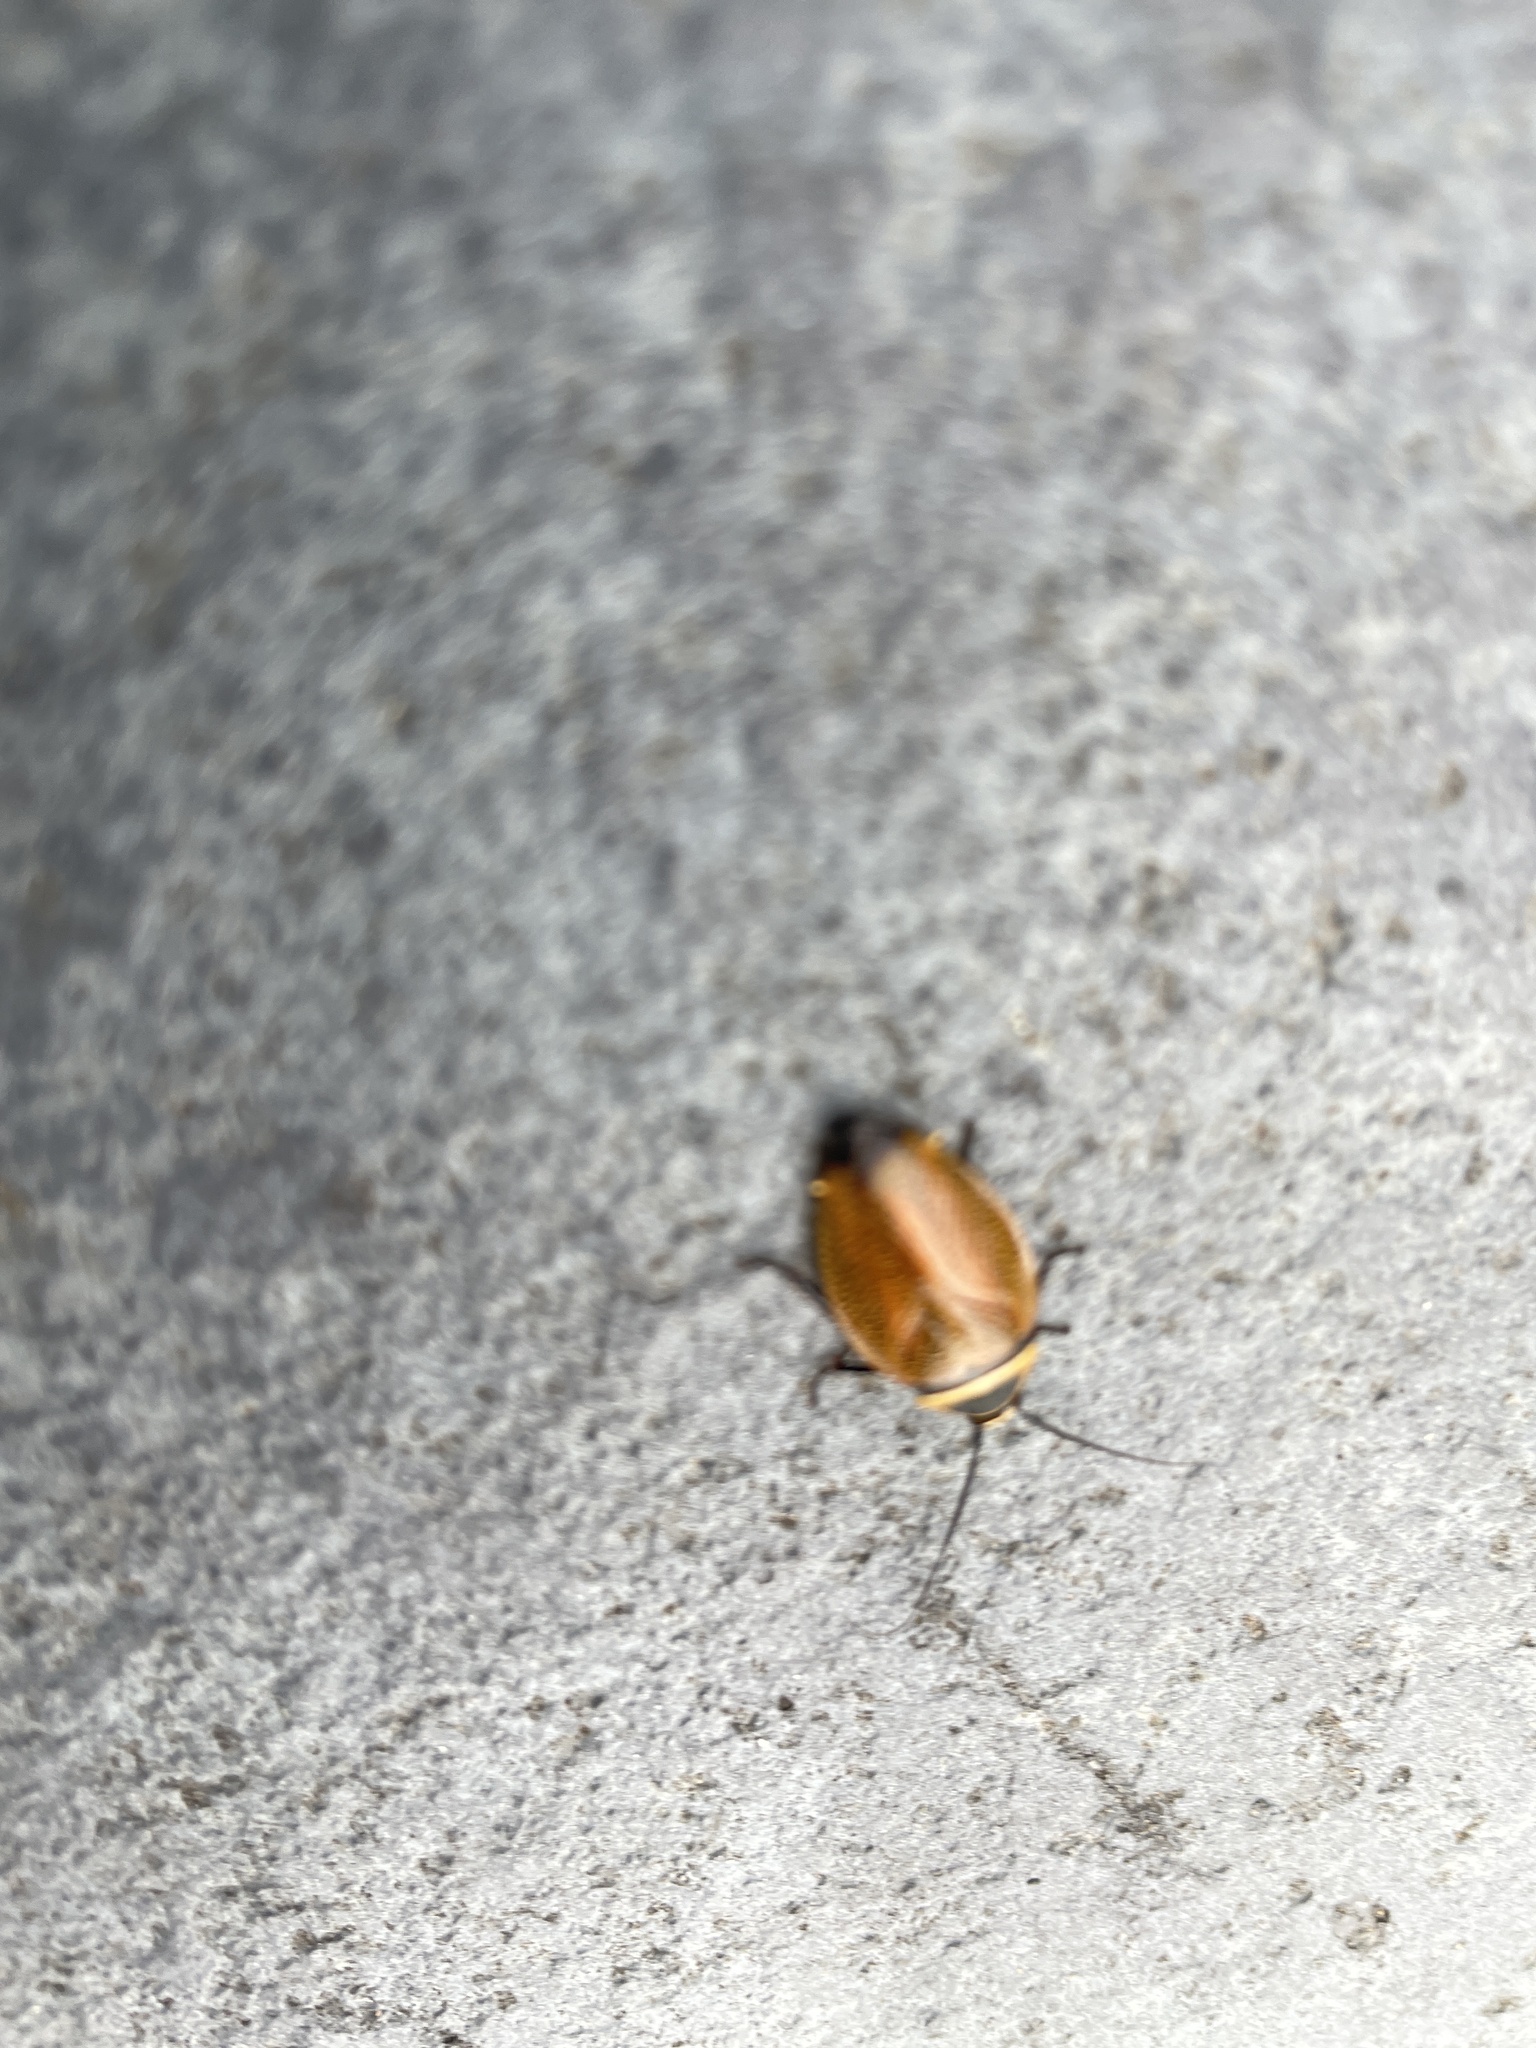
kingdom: Animalia
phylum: Arthropoda
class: Insecta
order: Blattodea
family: Ectobiidae
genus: Ellipsidion
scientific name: Ellipsidion australe
